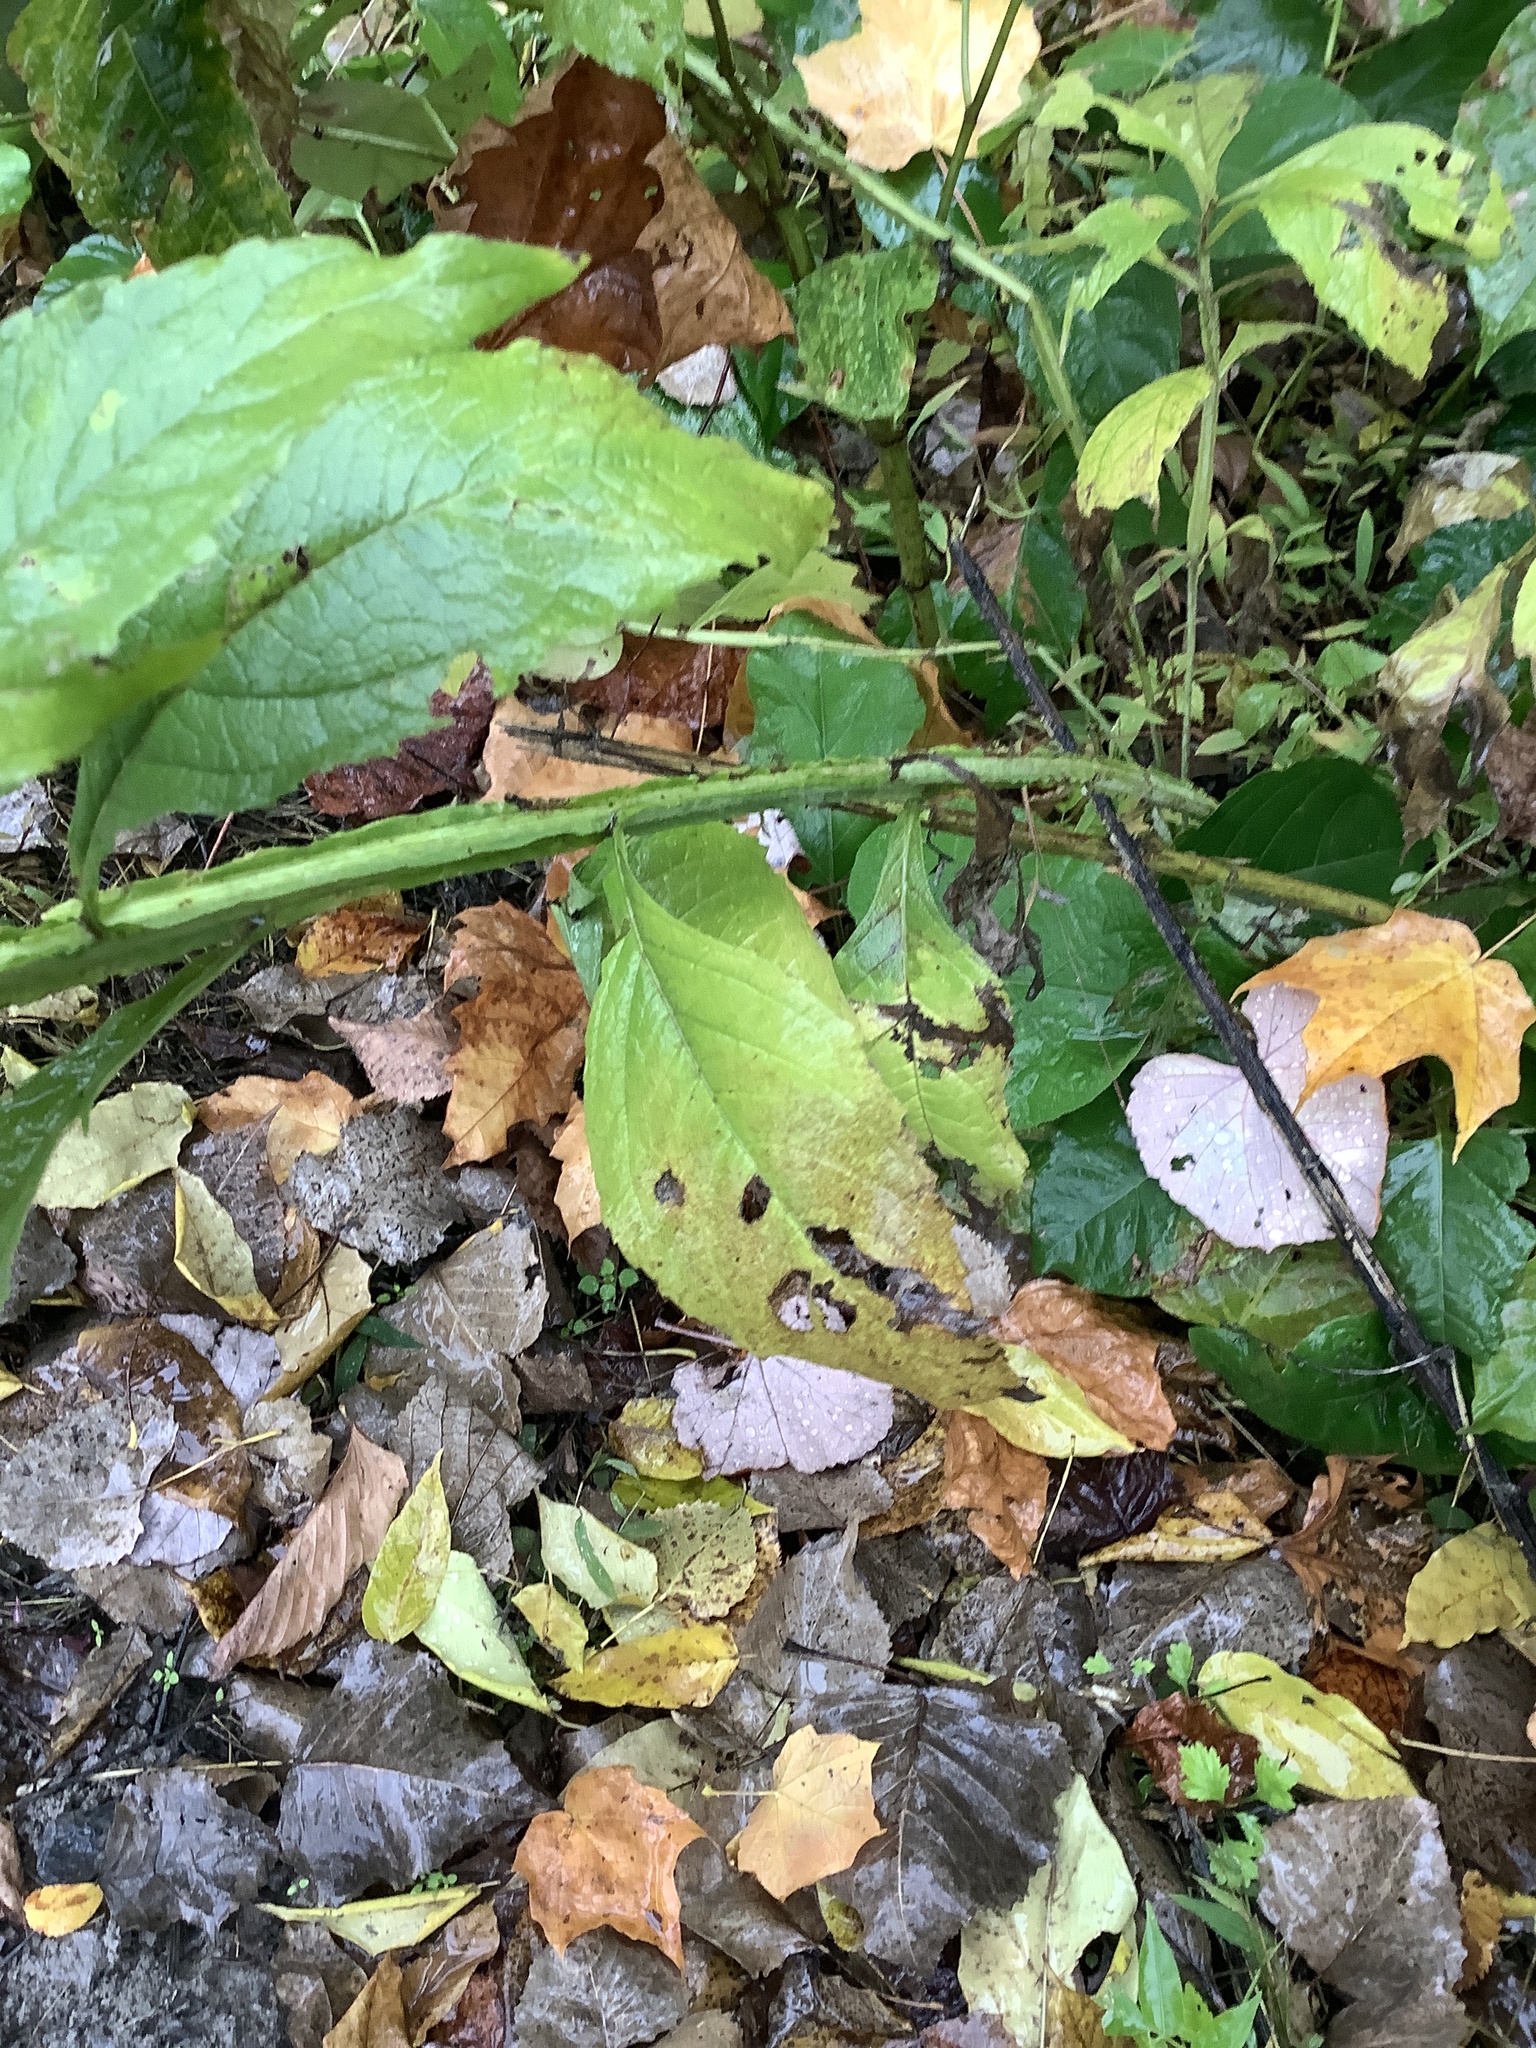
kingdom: Plantae
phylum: Tracheophyta
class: Magnoliopsida
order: Asterales
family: Asteraceae
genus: Verbesina
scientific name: Verbesina alternifolia
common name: Wingstem
